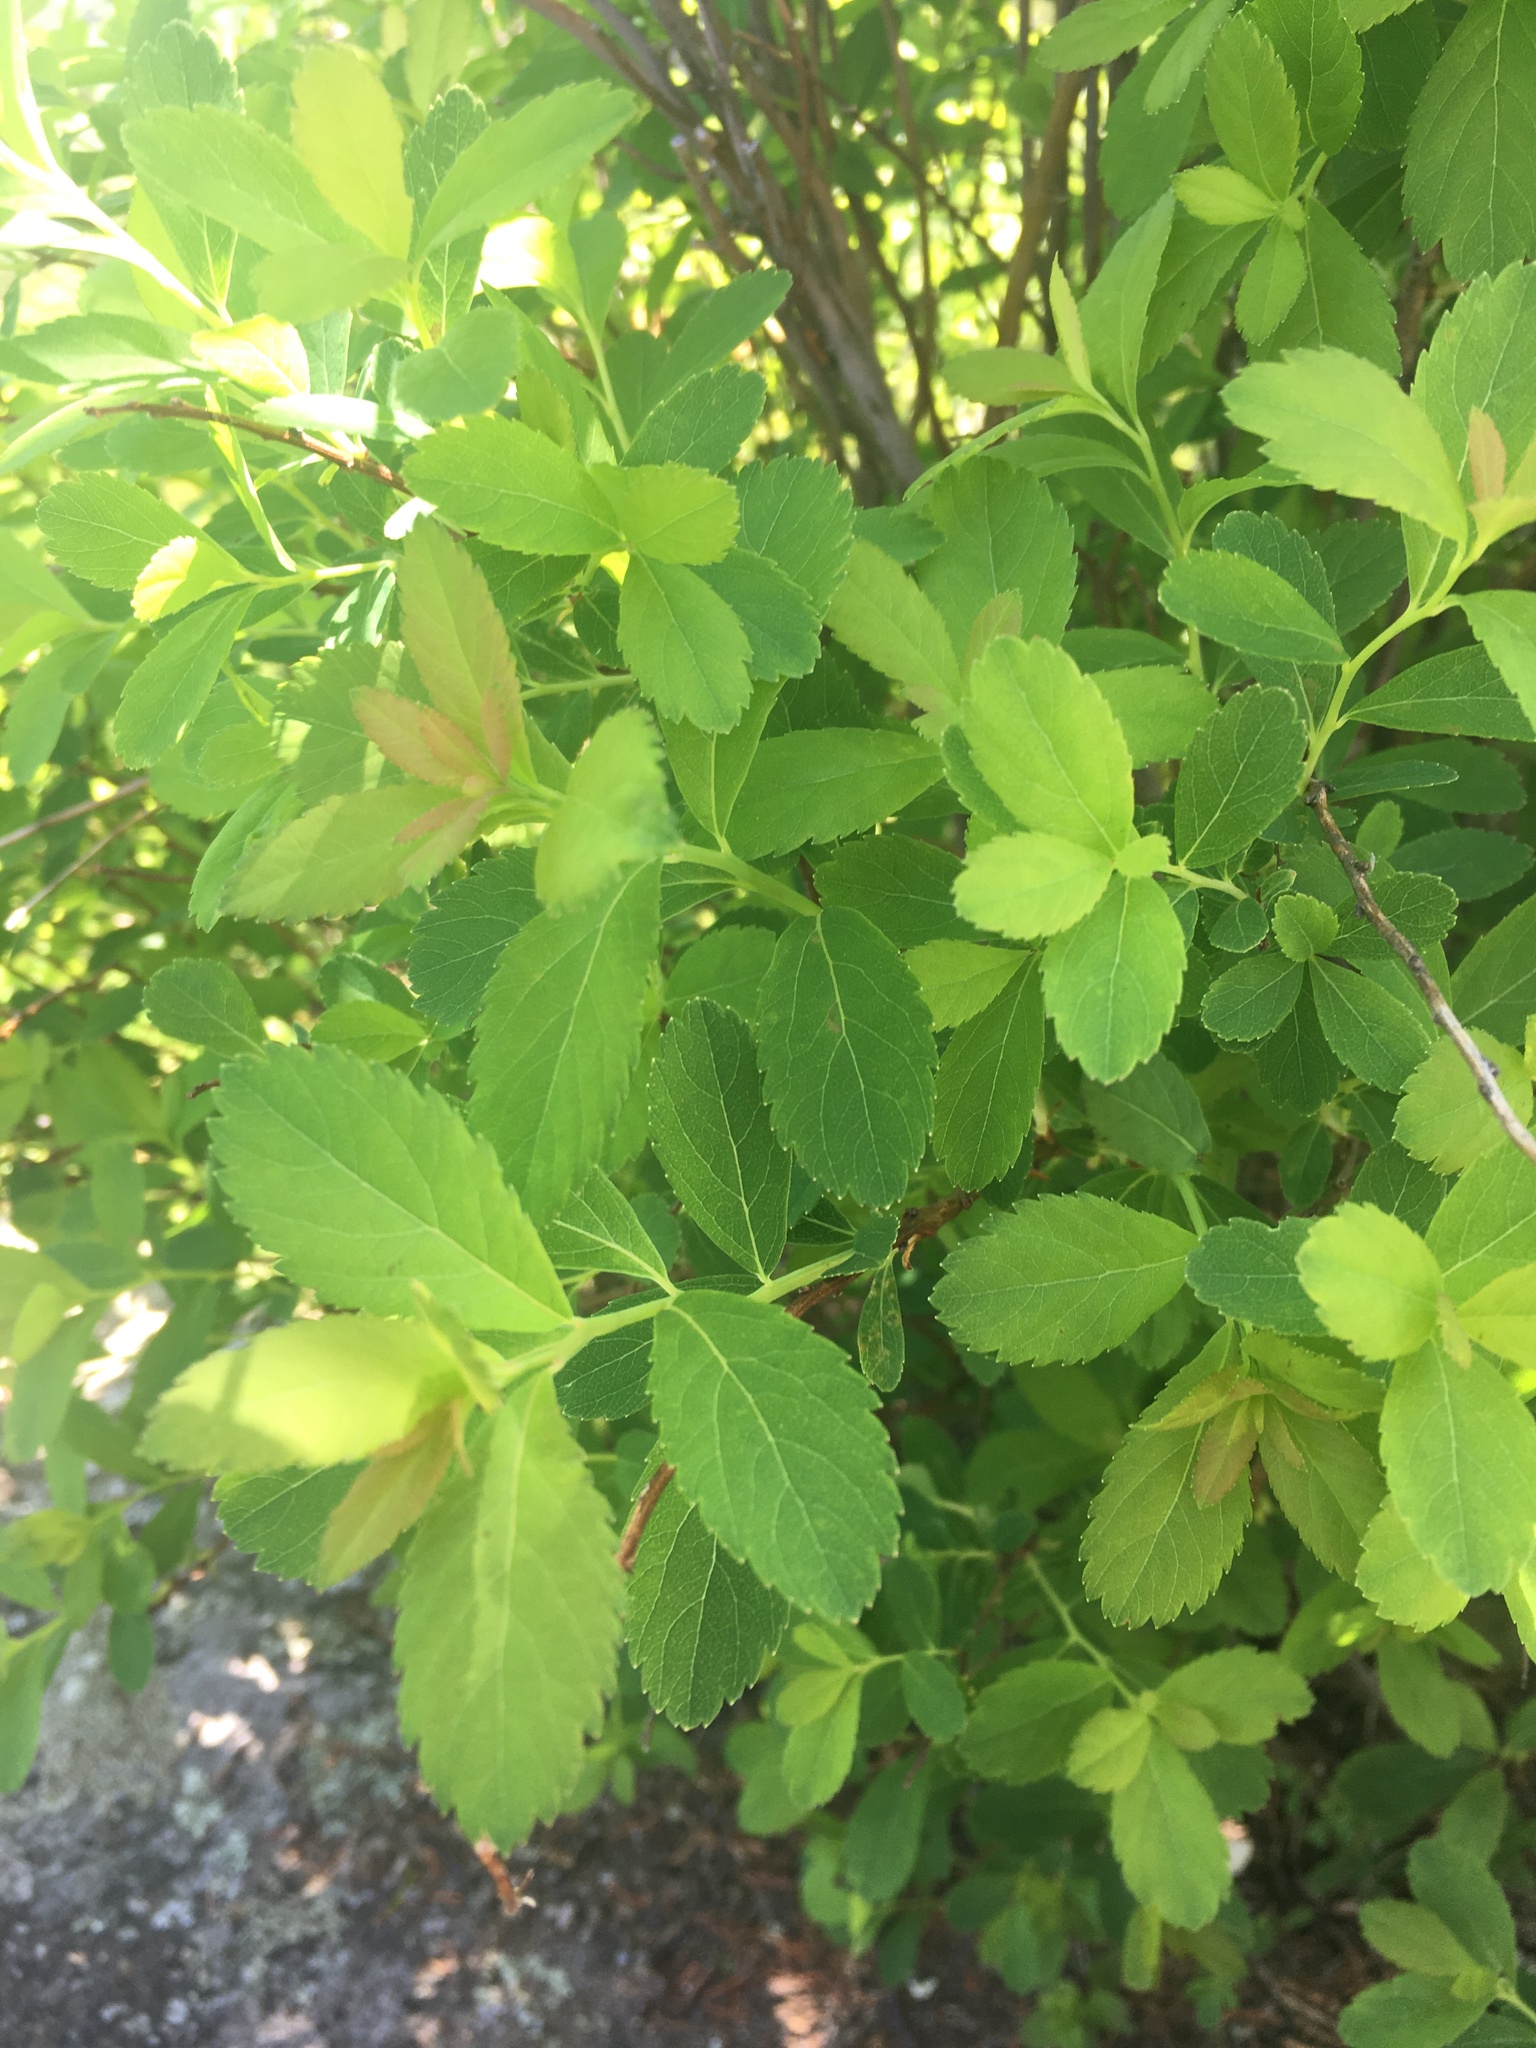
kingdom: Plantae
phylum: Tracheophyta
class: Magnoliopsida
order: Rosales
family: Rosaceae
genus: Spiraea
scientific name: Spiraea alba
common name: Pale bridewort
